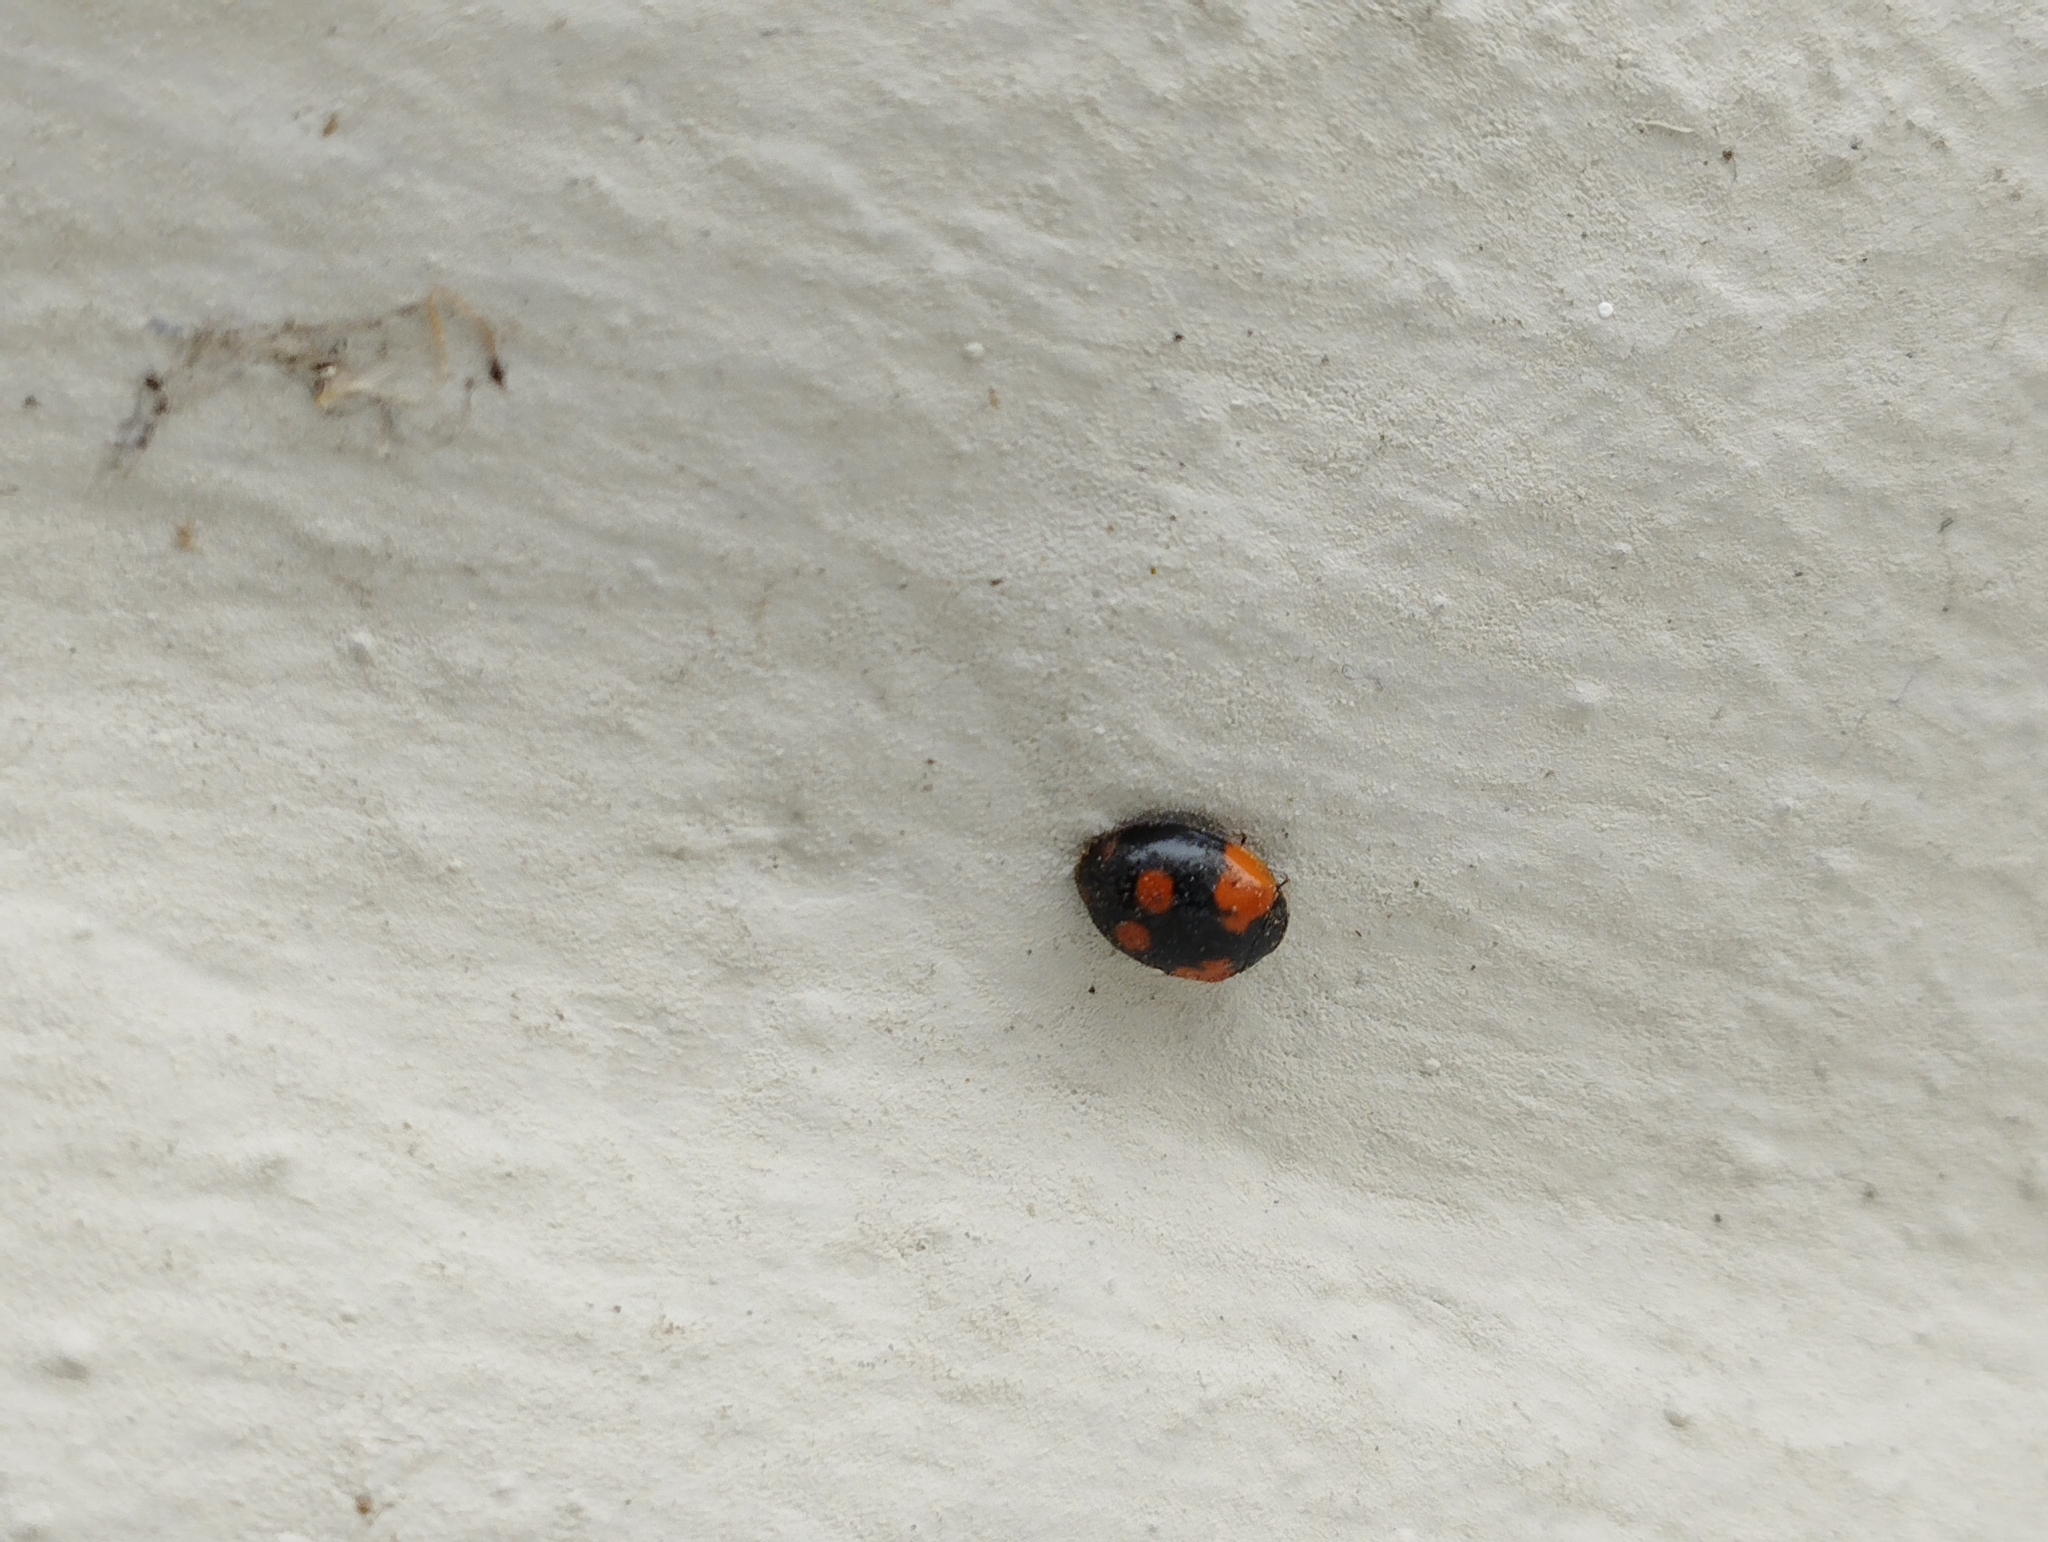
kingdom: Animalia
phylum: Arthropoda
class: Insecta
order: Coleoptera
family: Coccinellidae
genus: Adalia
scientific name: Adalia bipunctata
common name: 2-spot ladybird
